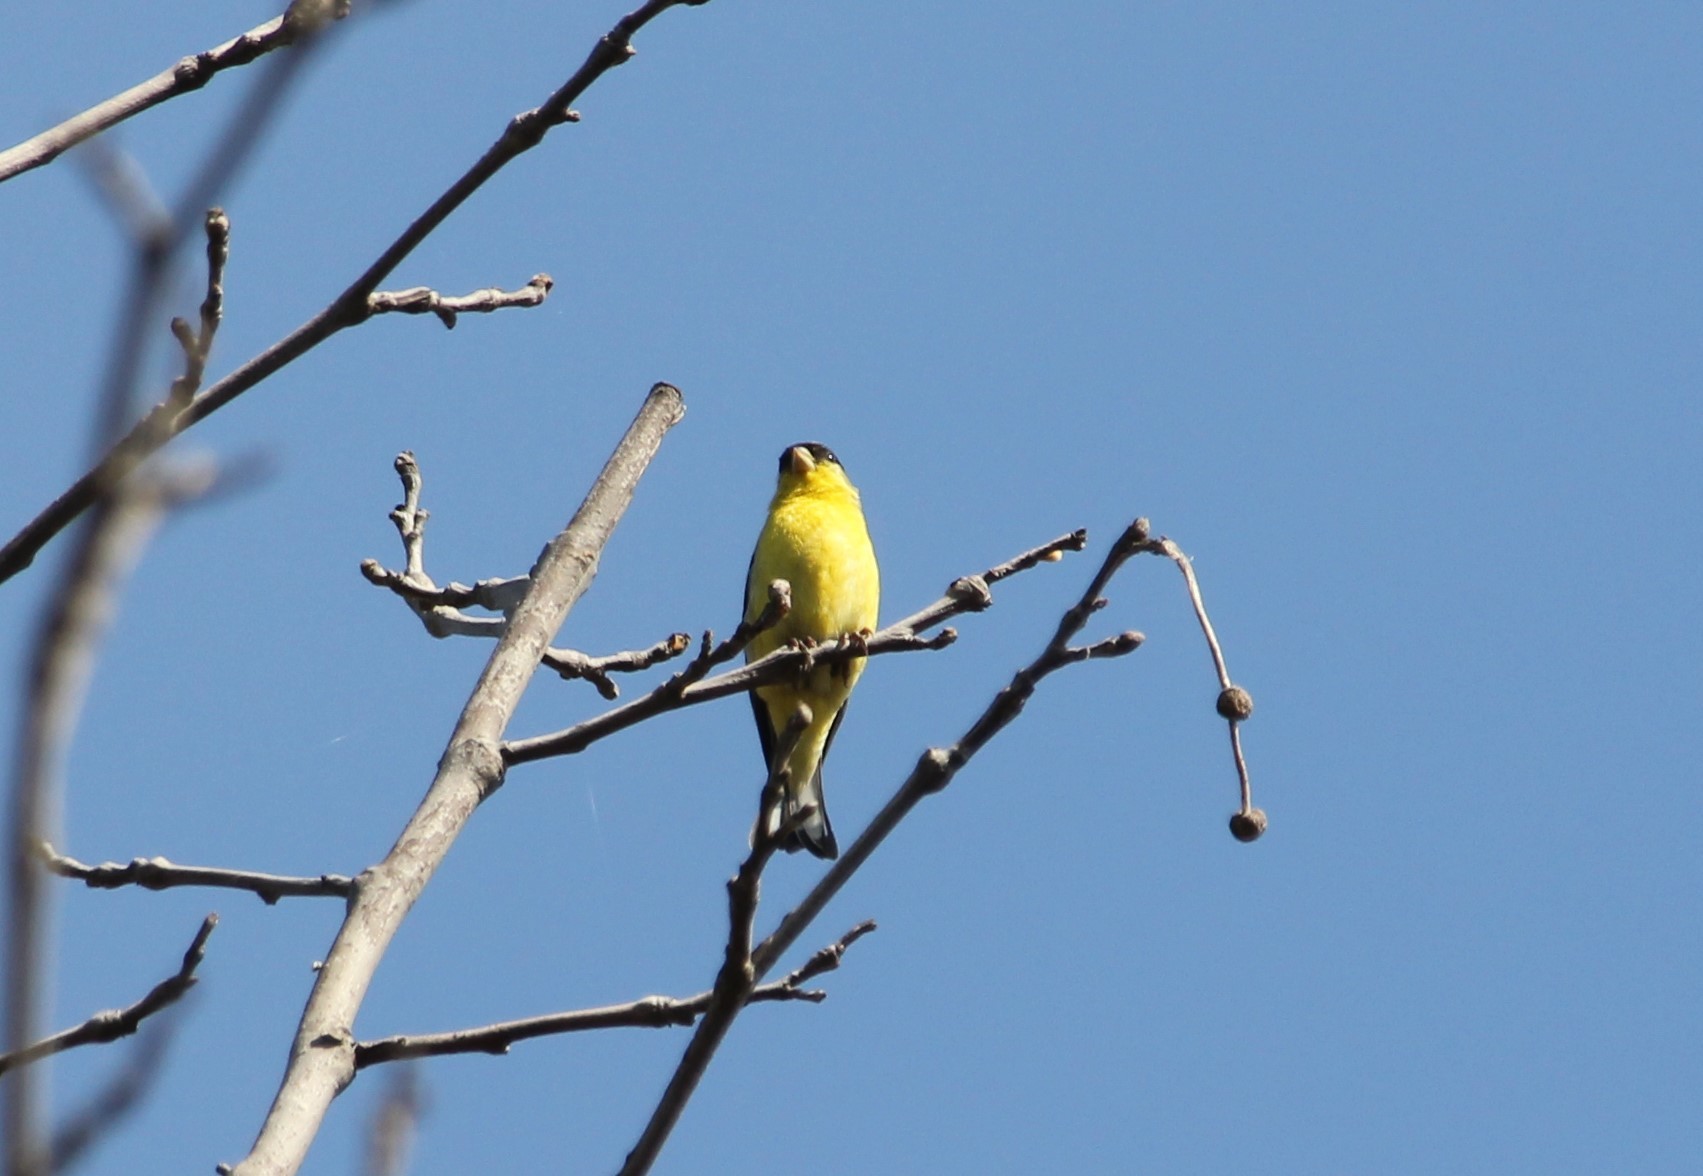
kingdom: Animalia
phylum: Chordata
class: Aves
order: Passeriformes
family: Fringillidae
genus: Spinus
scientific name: Spinus psaltria
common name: Lesser goldfinch
